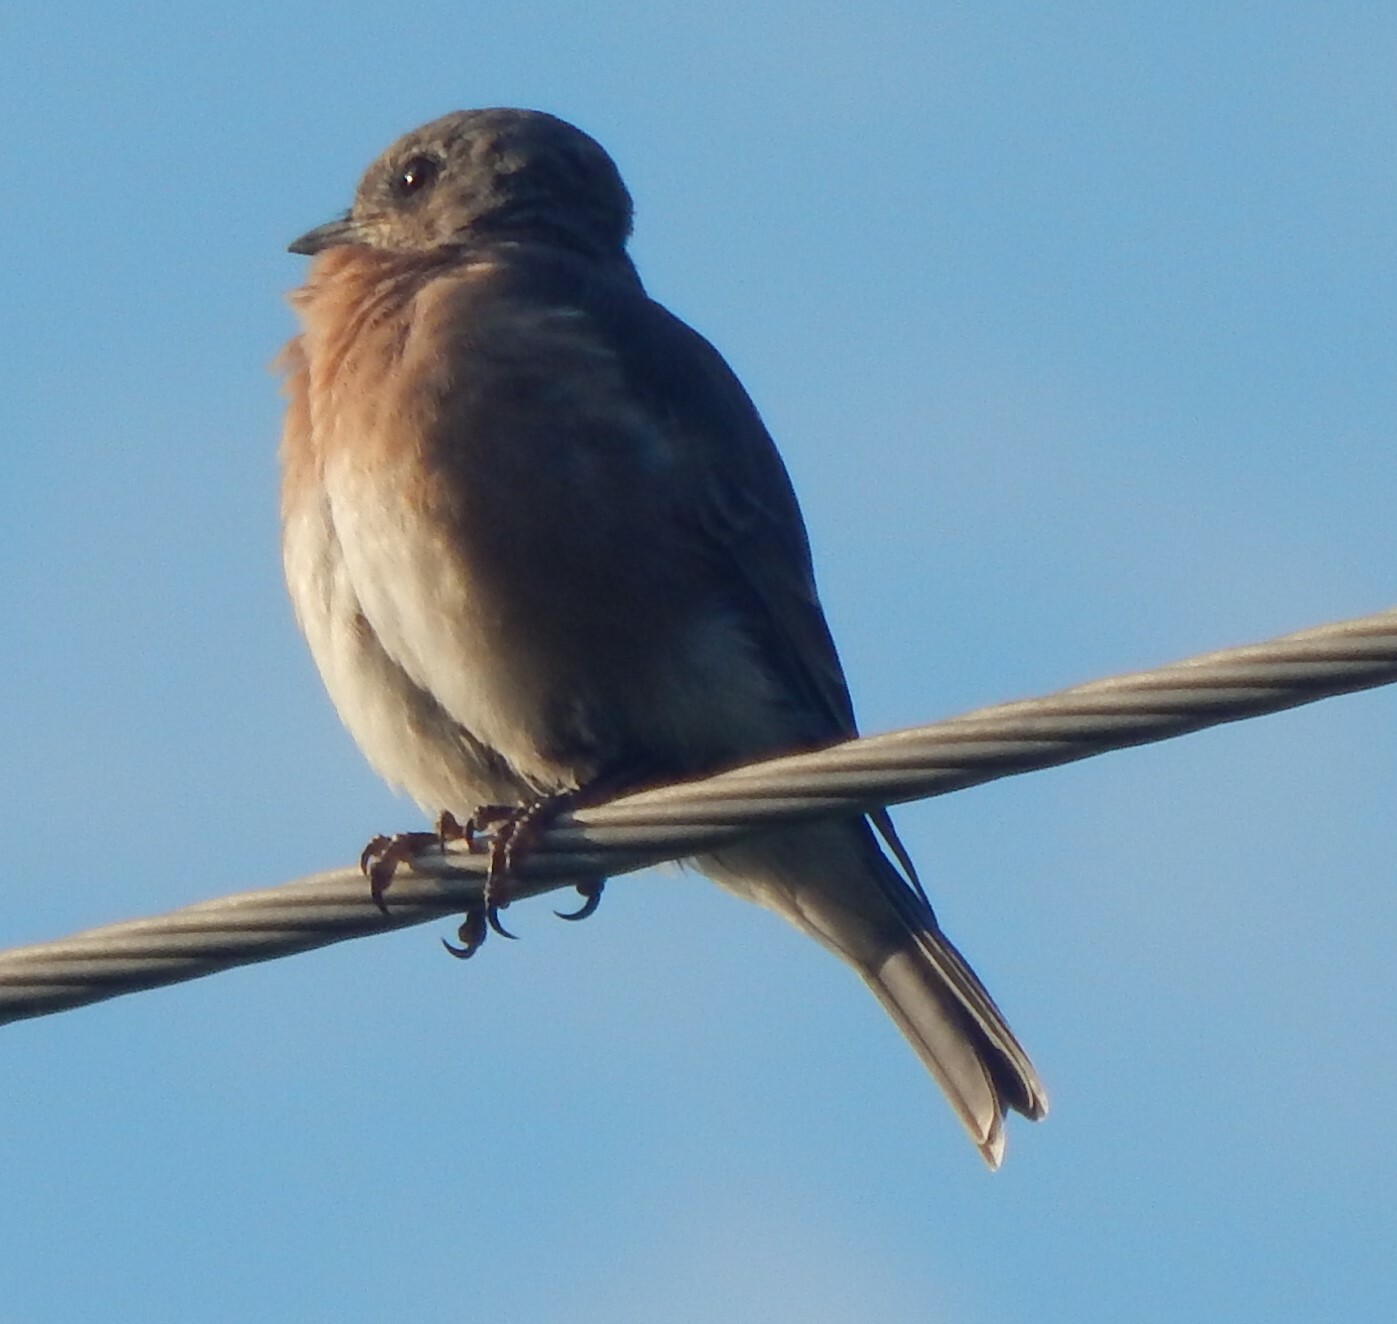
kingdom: Animalia
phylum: Chordata
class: Aves
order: Passeriformes
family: Turdidae
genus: Sialia
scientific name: Sialia sialis
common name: Eastern bluebird
